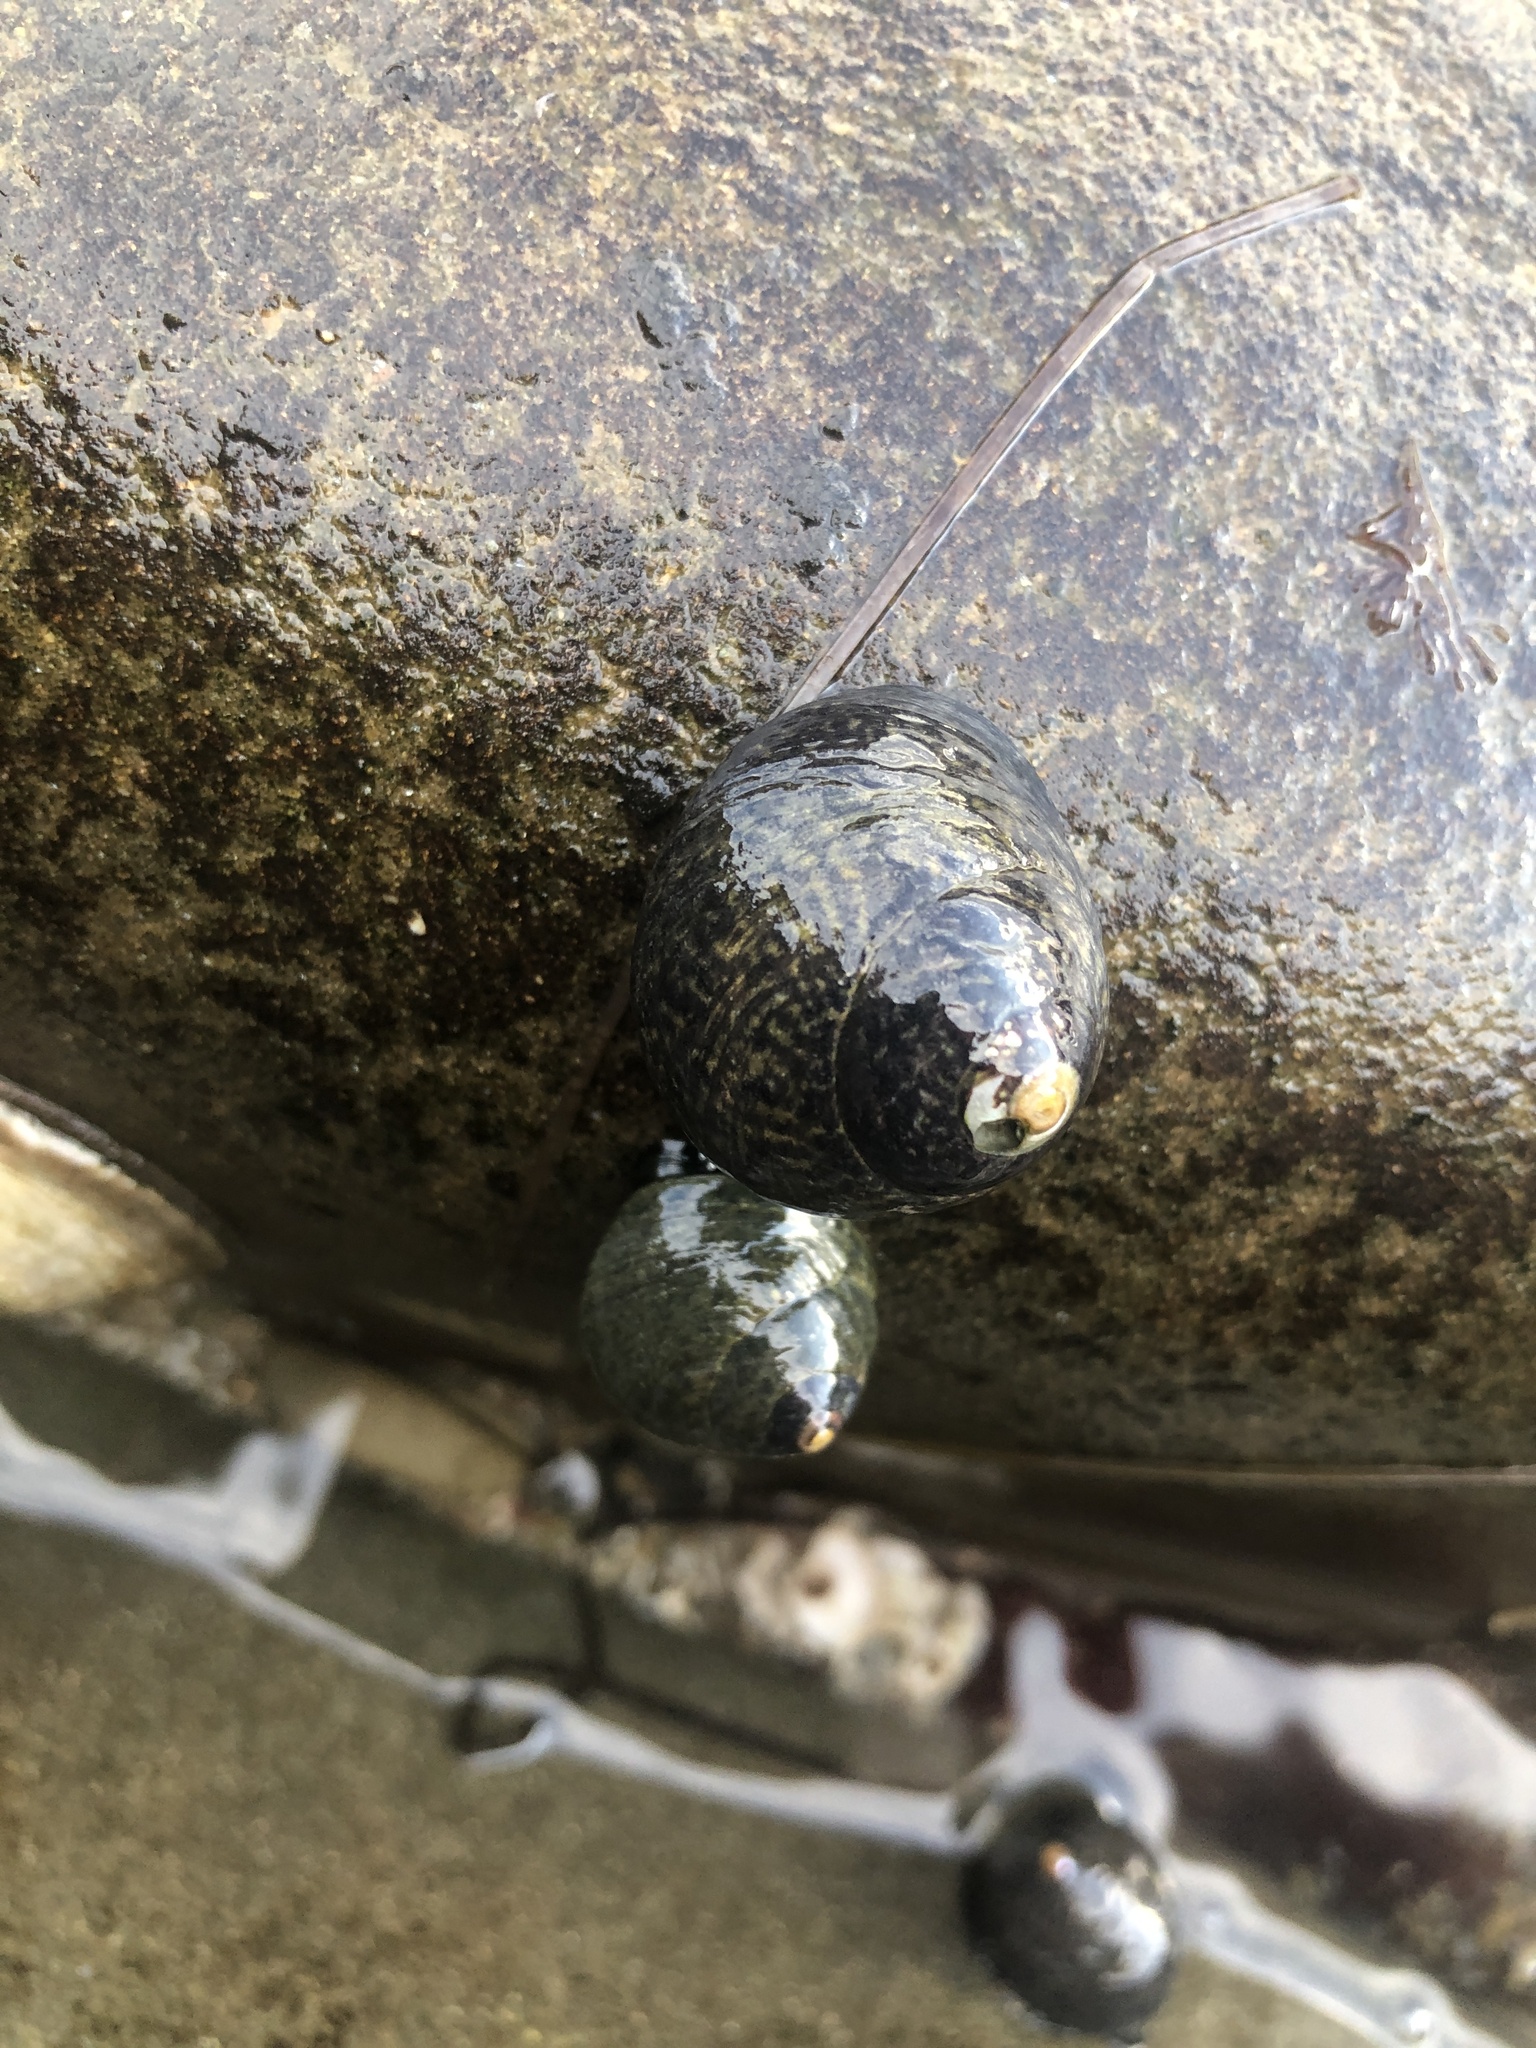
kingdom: Animalia
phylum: Mollusca
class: Gastropoda
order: Trochida
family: Tegulidae
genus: Tegula
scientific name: Tegula gallina
